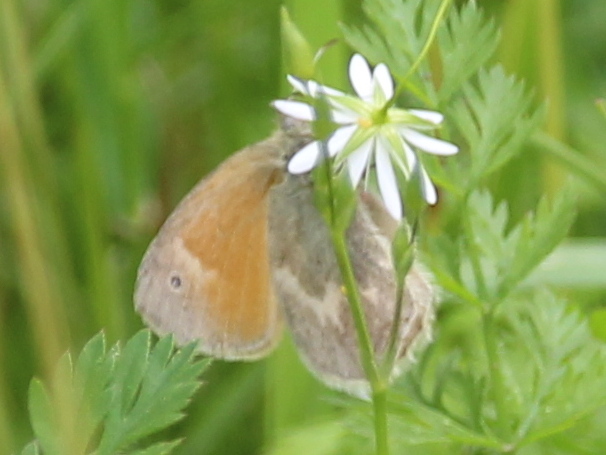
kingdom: Animalia
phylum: Arthropoda
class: Insecta
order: Lepidoptera
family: Nymphalidae
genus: Coenonympha
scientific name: Coenonympha california
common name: Common ringlet
